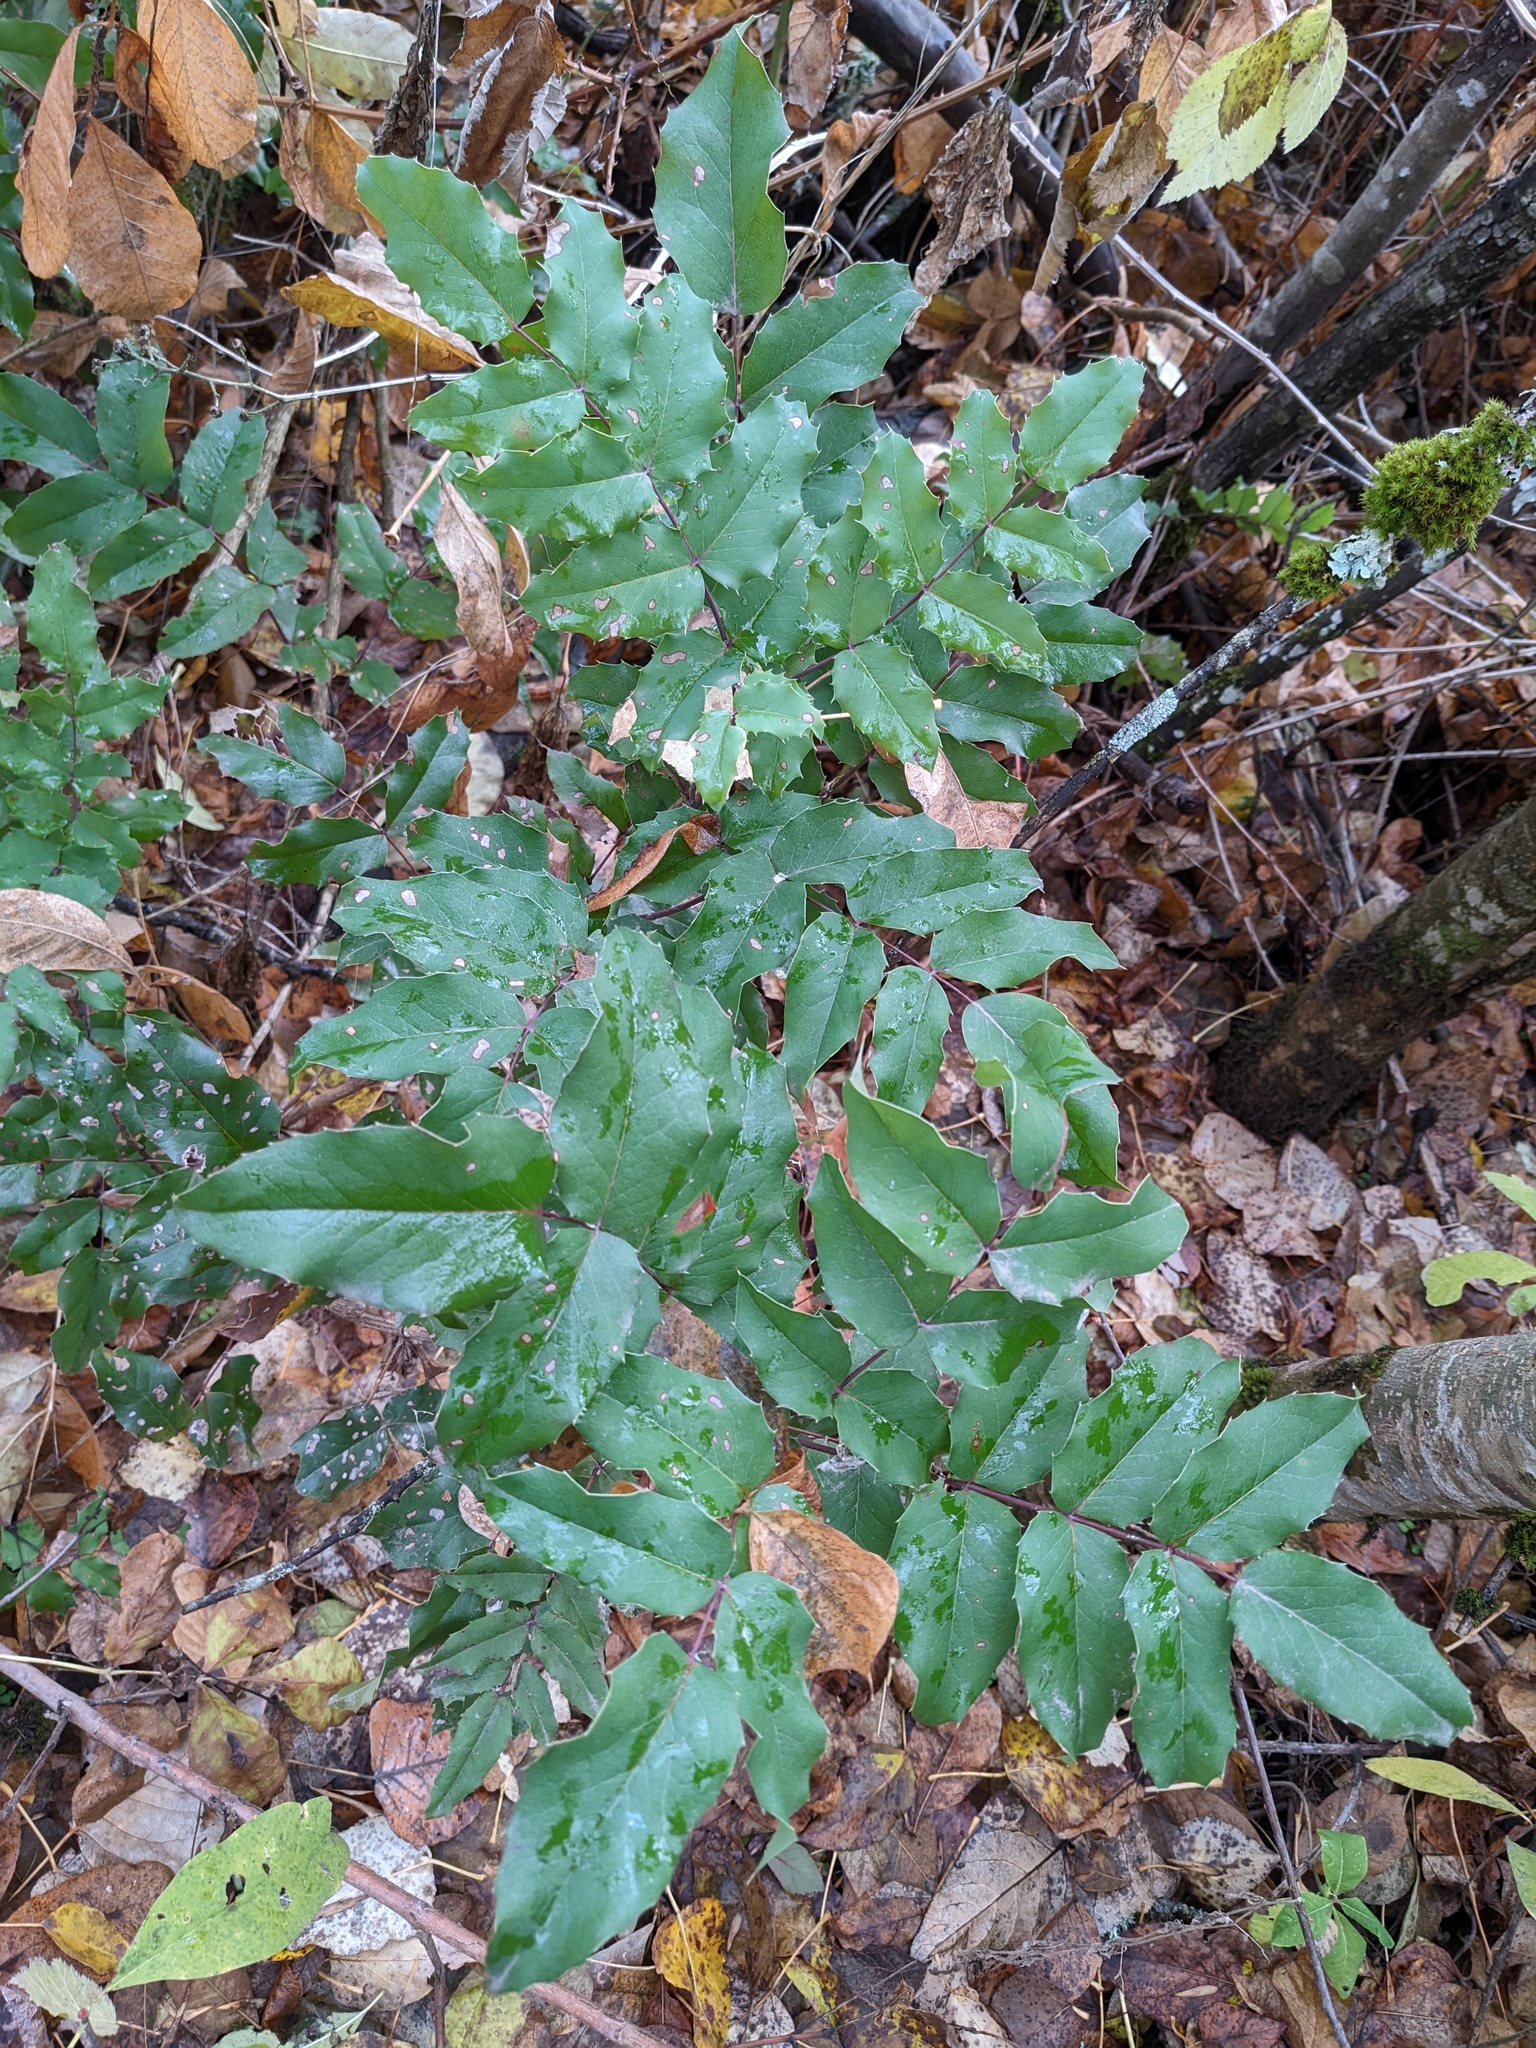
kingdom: Plantae
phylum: Tracheophyta
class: Magnoliopsida
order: Ranunculales
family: Berberidaceae
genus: Mahonia
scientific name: Mahonia aquifolium
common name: Oregon-grape
